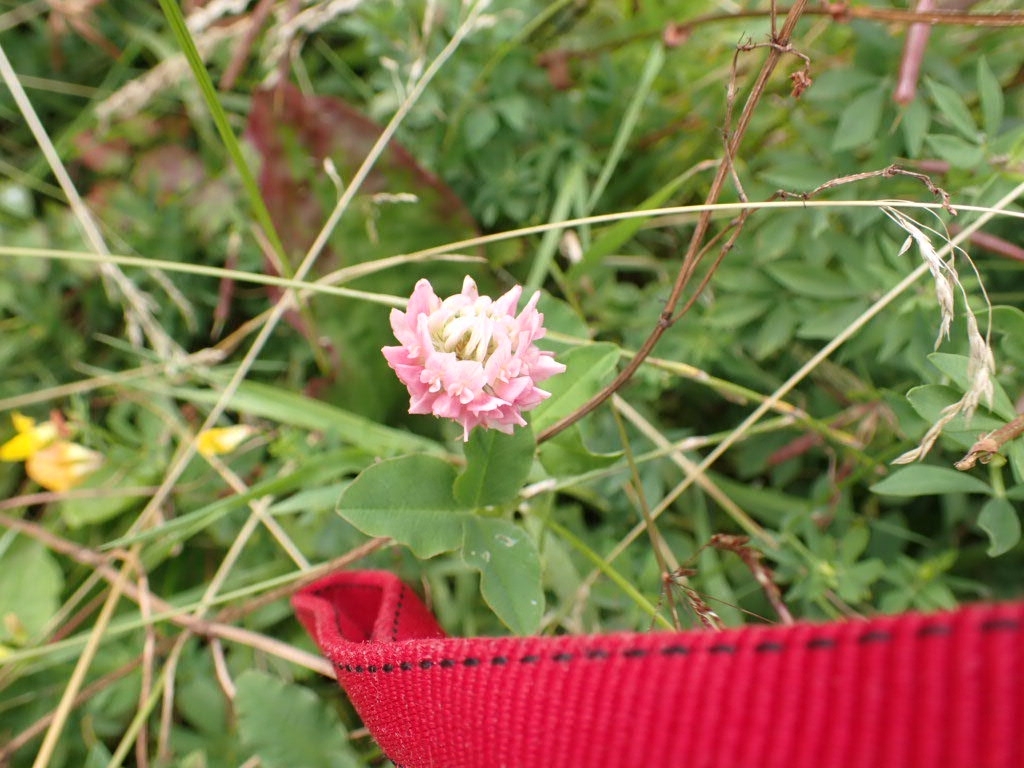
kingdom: Plantae
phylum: Tracheophyta
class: Magnoliopsida
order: Fabales
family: Fabaceae
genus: Trifolium
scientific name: Trifolium hybridum
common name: Alsike clover
